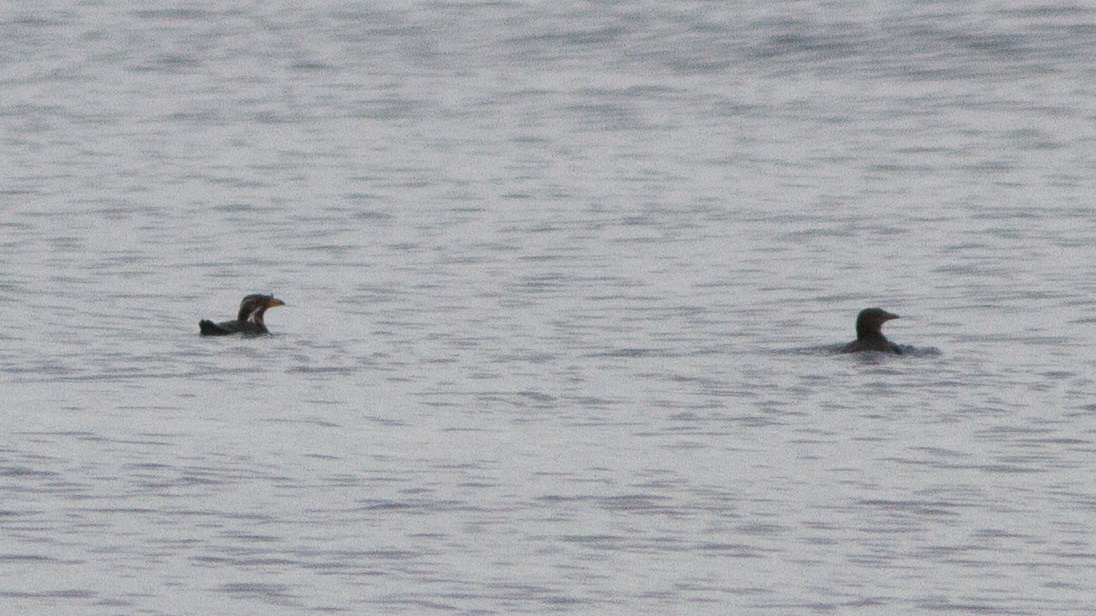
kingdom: Animalia
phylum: Chordata
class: Aves
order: Charadriiformes
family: Alcidae
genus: Cerorhinca
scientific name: Cerorhinca monocerata
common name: Rhinoceros auklet
